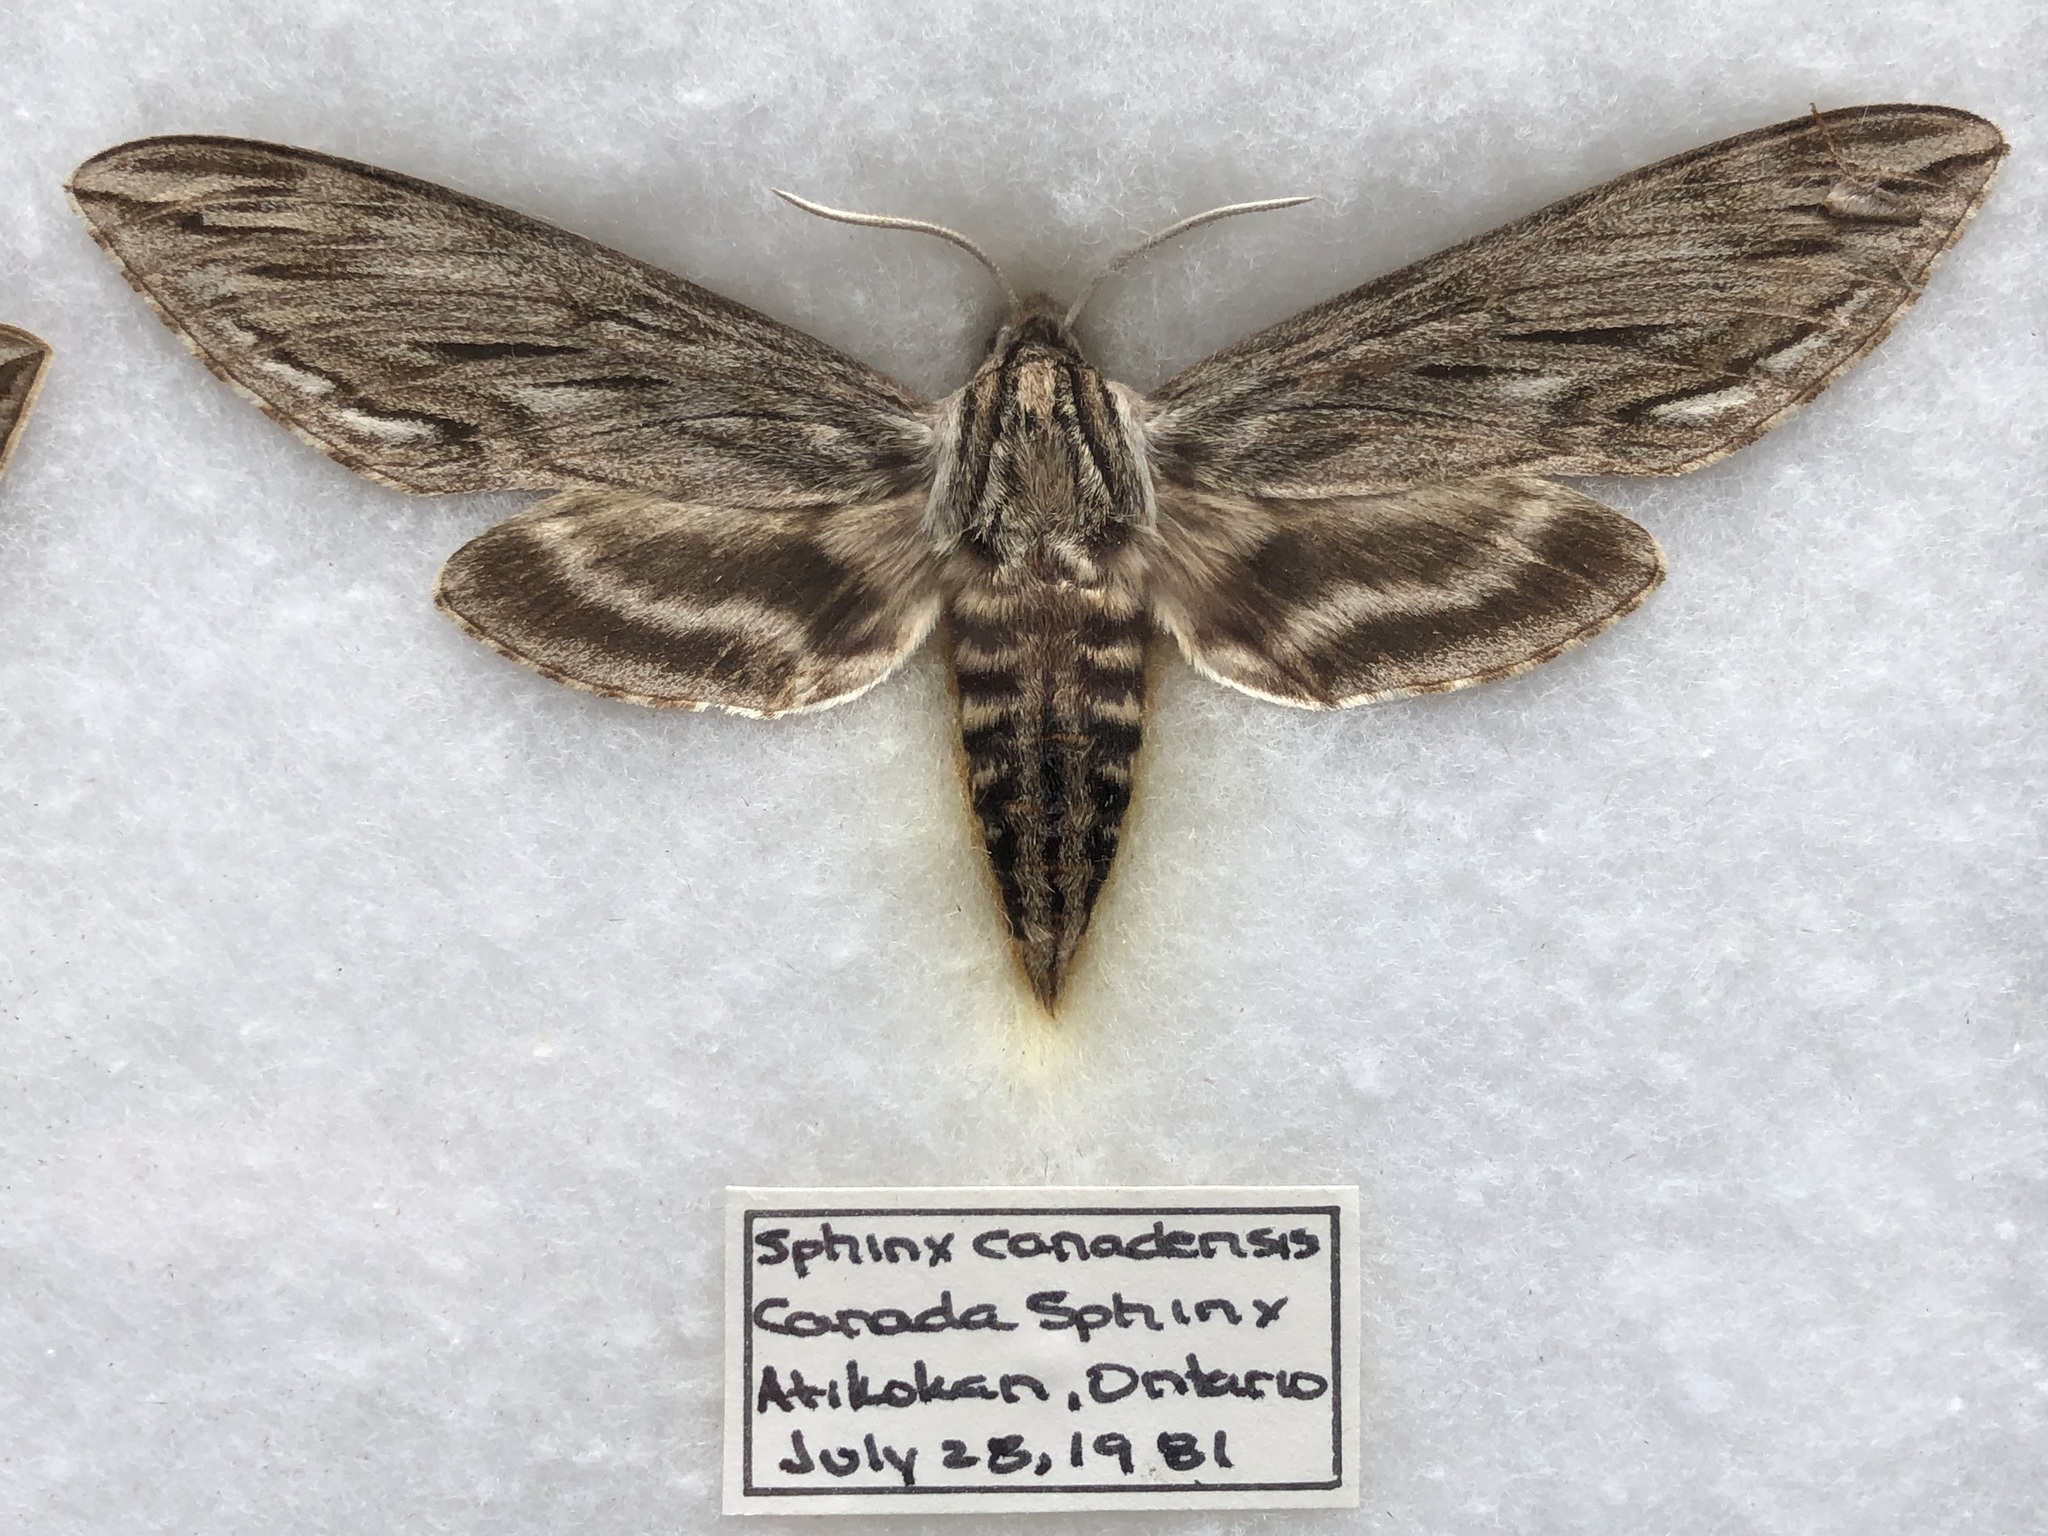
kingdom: Animalia
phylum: Arthropoda
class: Insecta
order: Lepidoptera
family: Sphingidae
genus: Sphinx
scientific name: Sphinx canadensis
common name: Canadian sphinx
